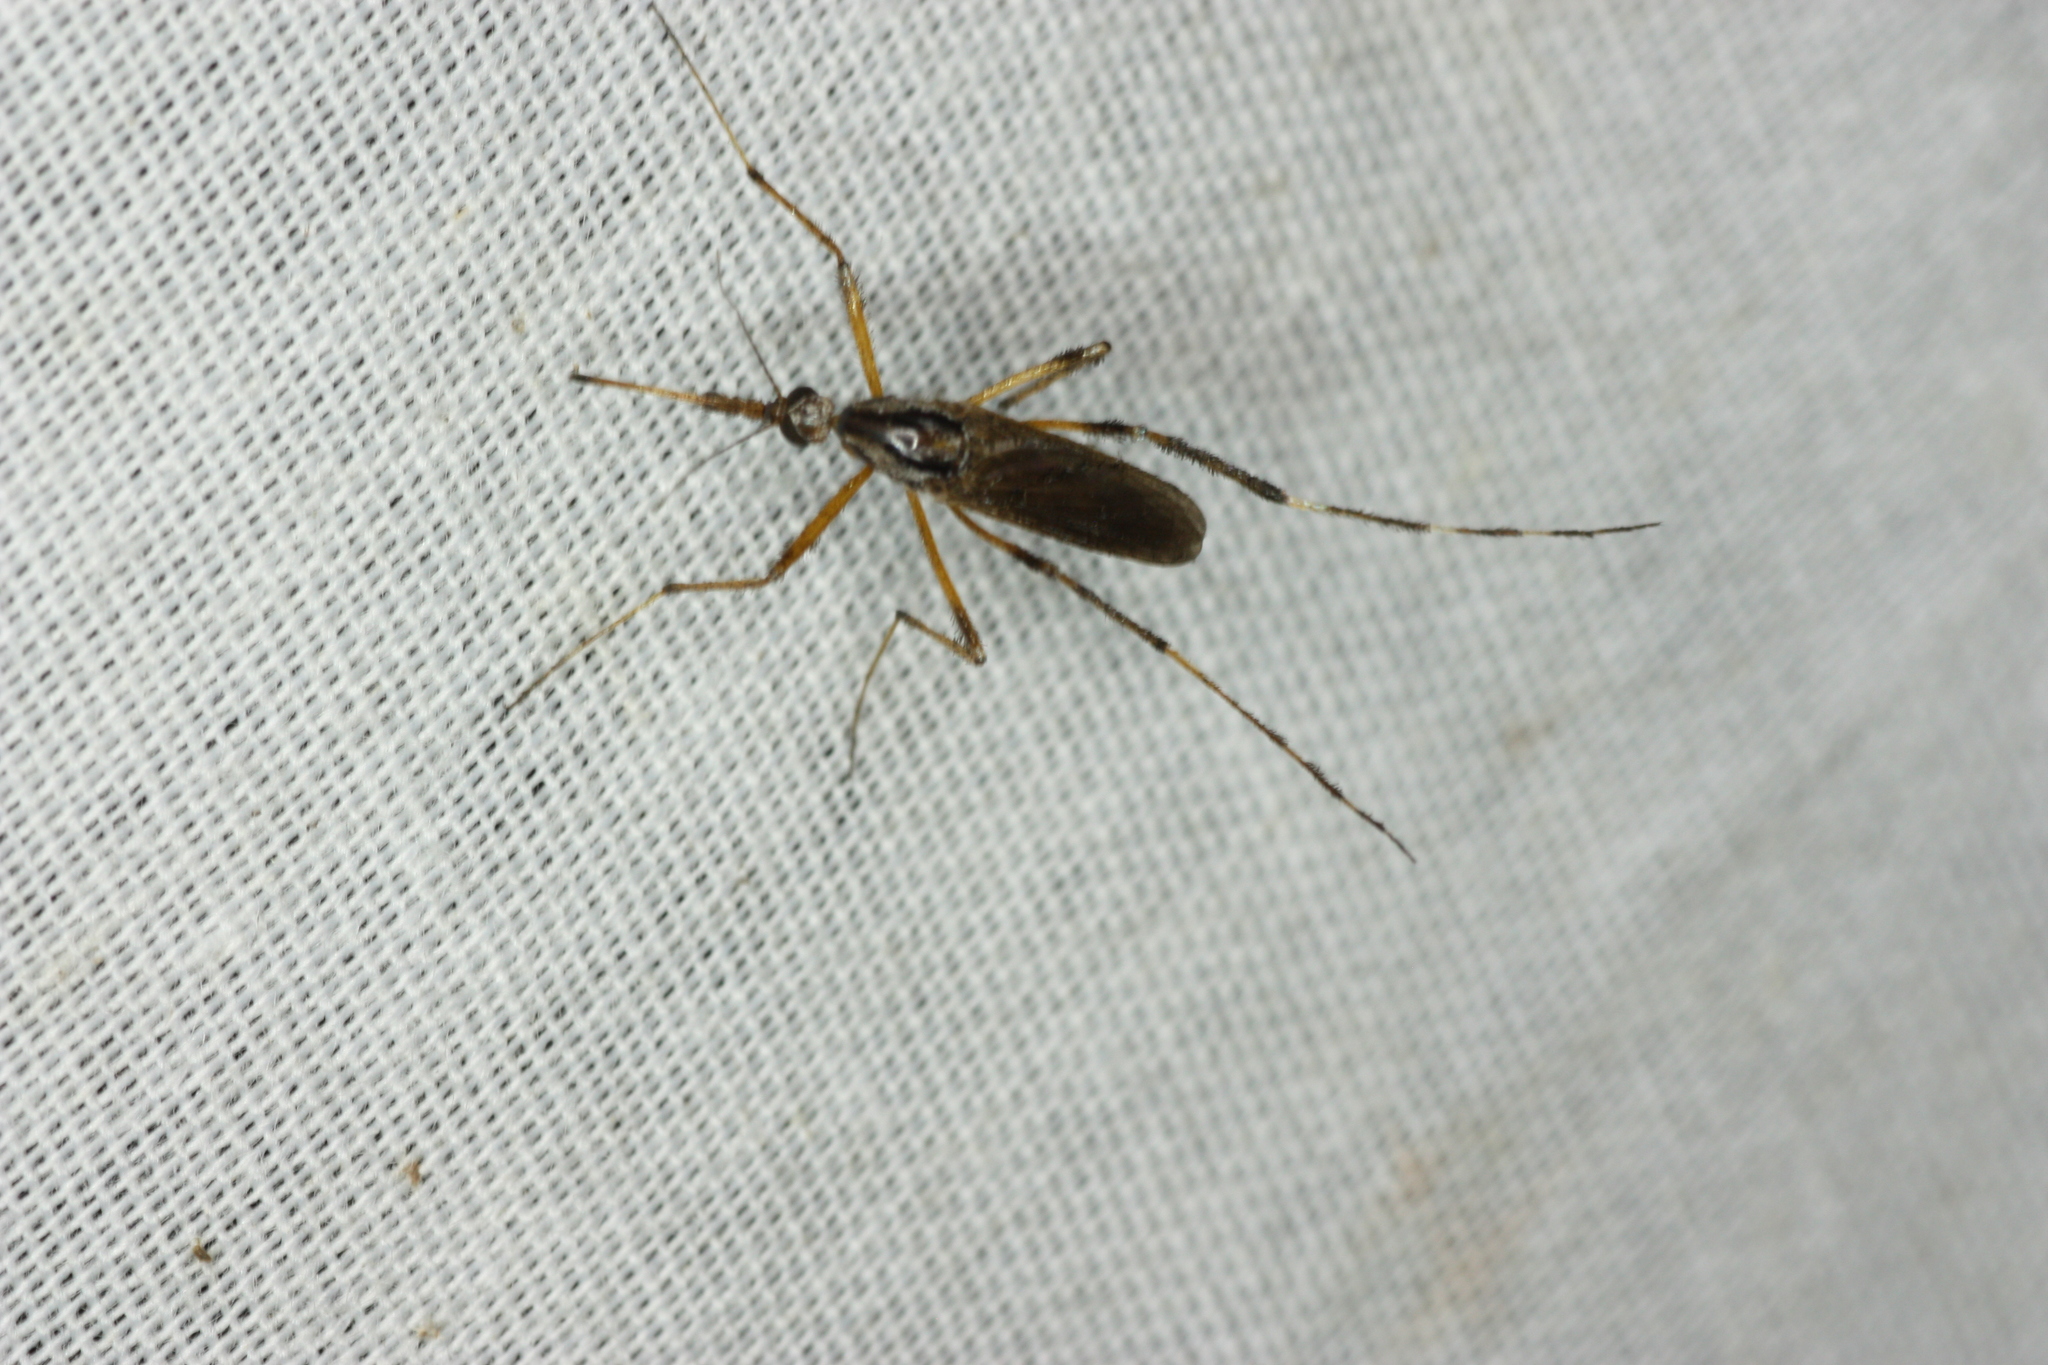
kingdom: Animalia
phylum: Arthropoda
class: Insecta
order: Diptera
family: Culicidae
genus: Psorophora
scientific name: Psorophora ciliata
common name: Gallinipper
